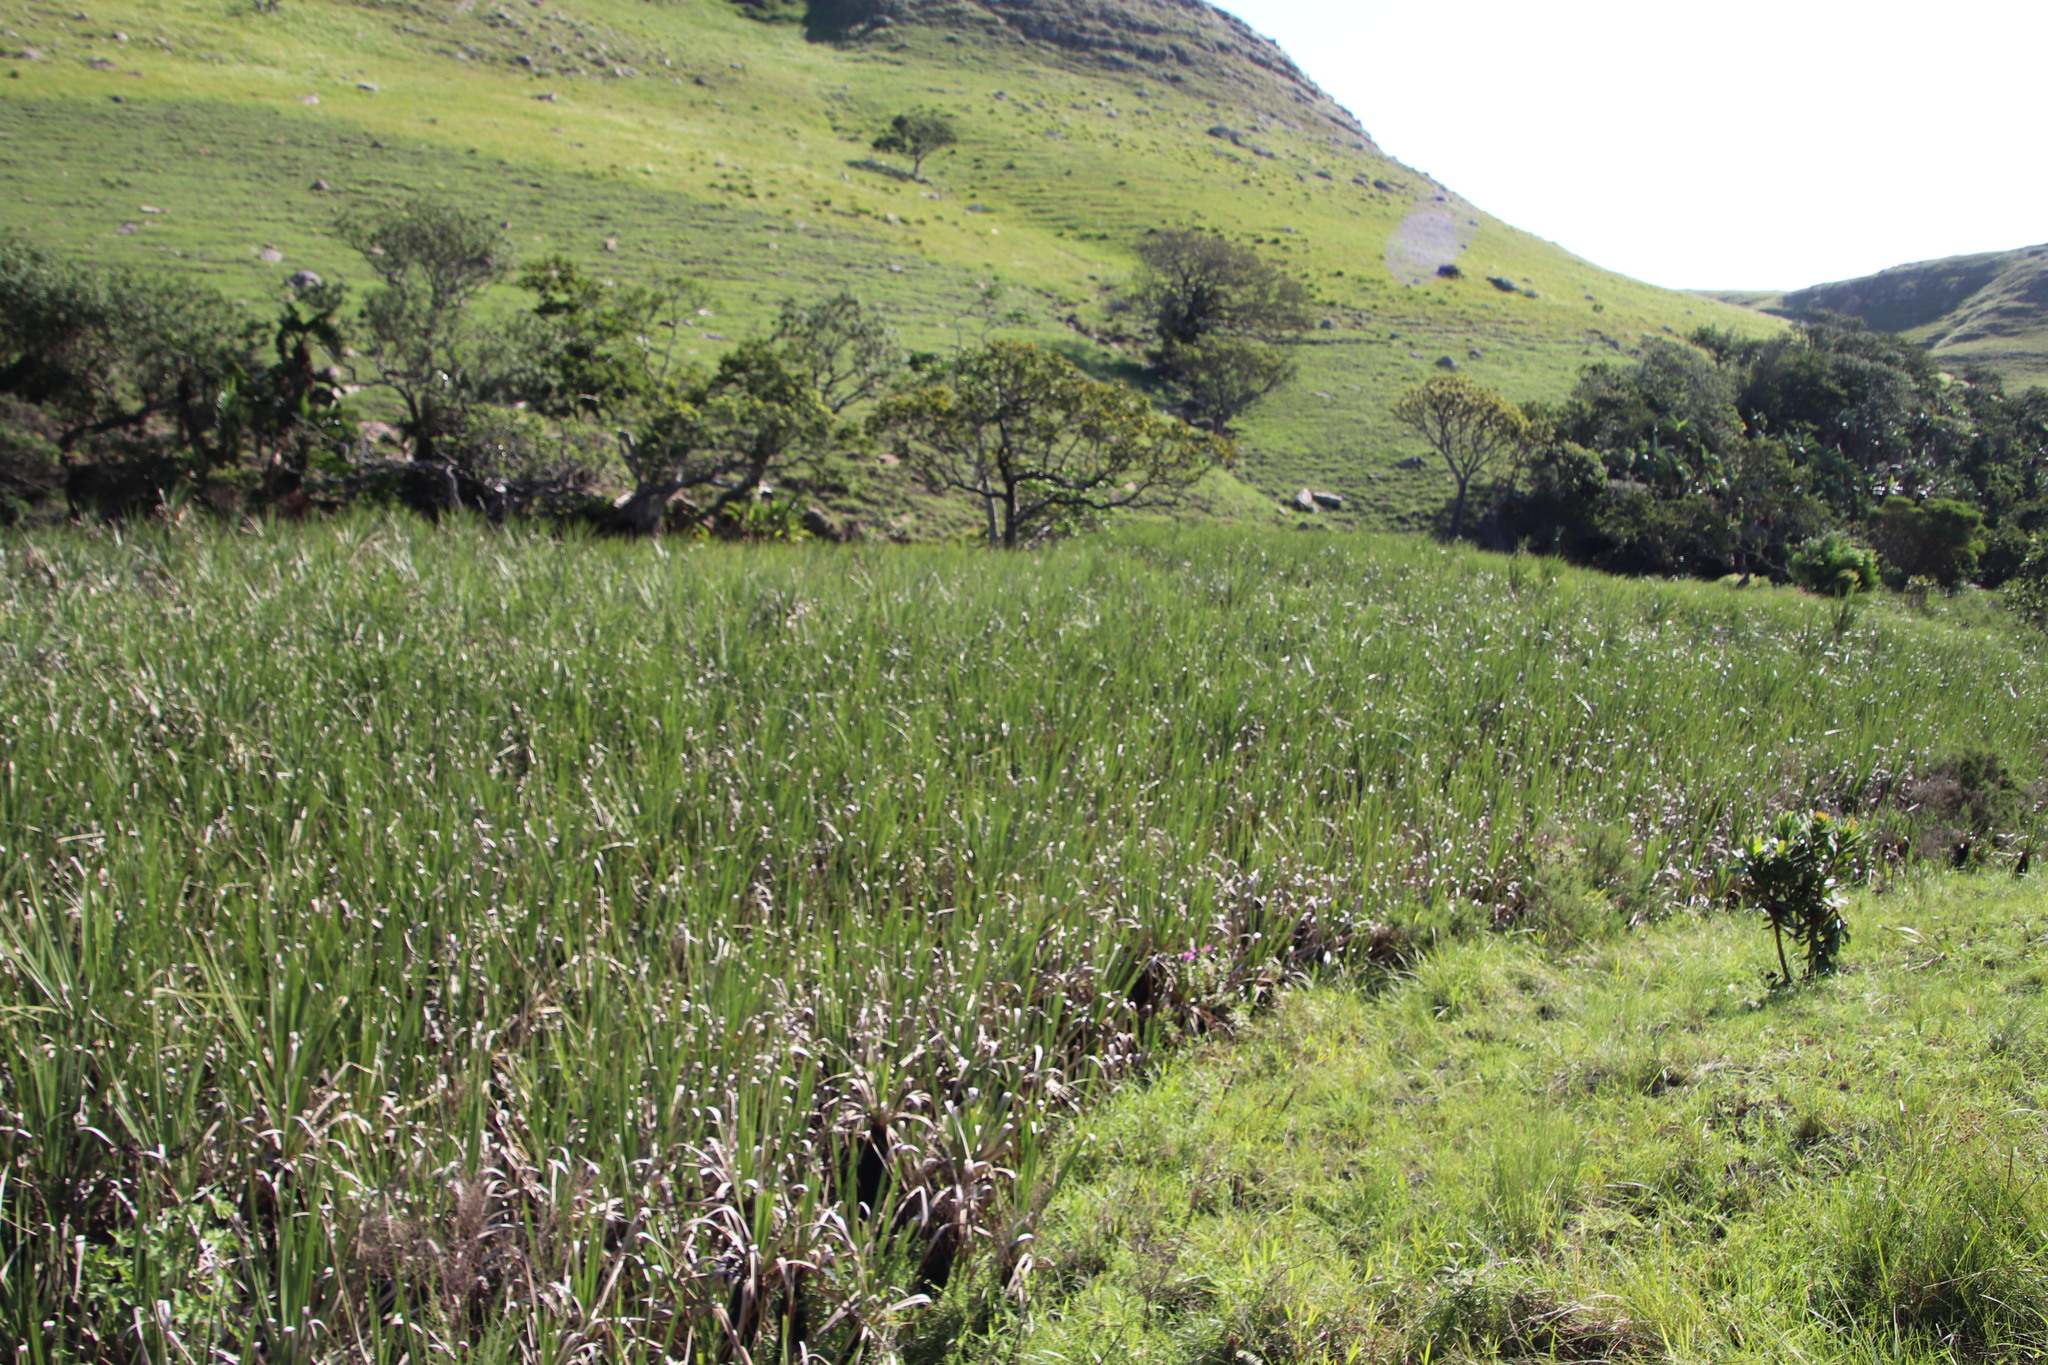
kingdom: Plantae
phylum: Tracheophyta
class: Liliopsida
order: Poales
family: Thurniaceae
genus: Prionium
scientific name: Prionium serratum
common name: Palmiet
